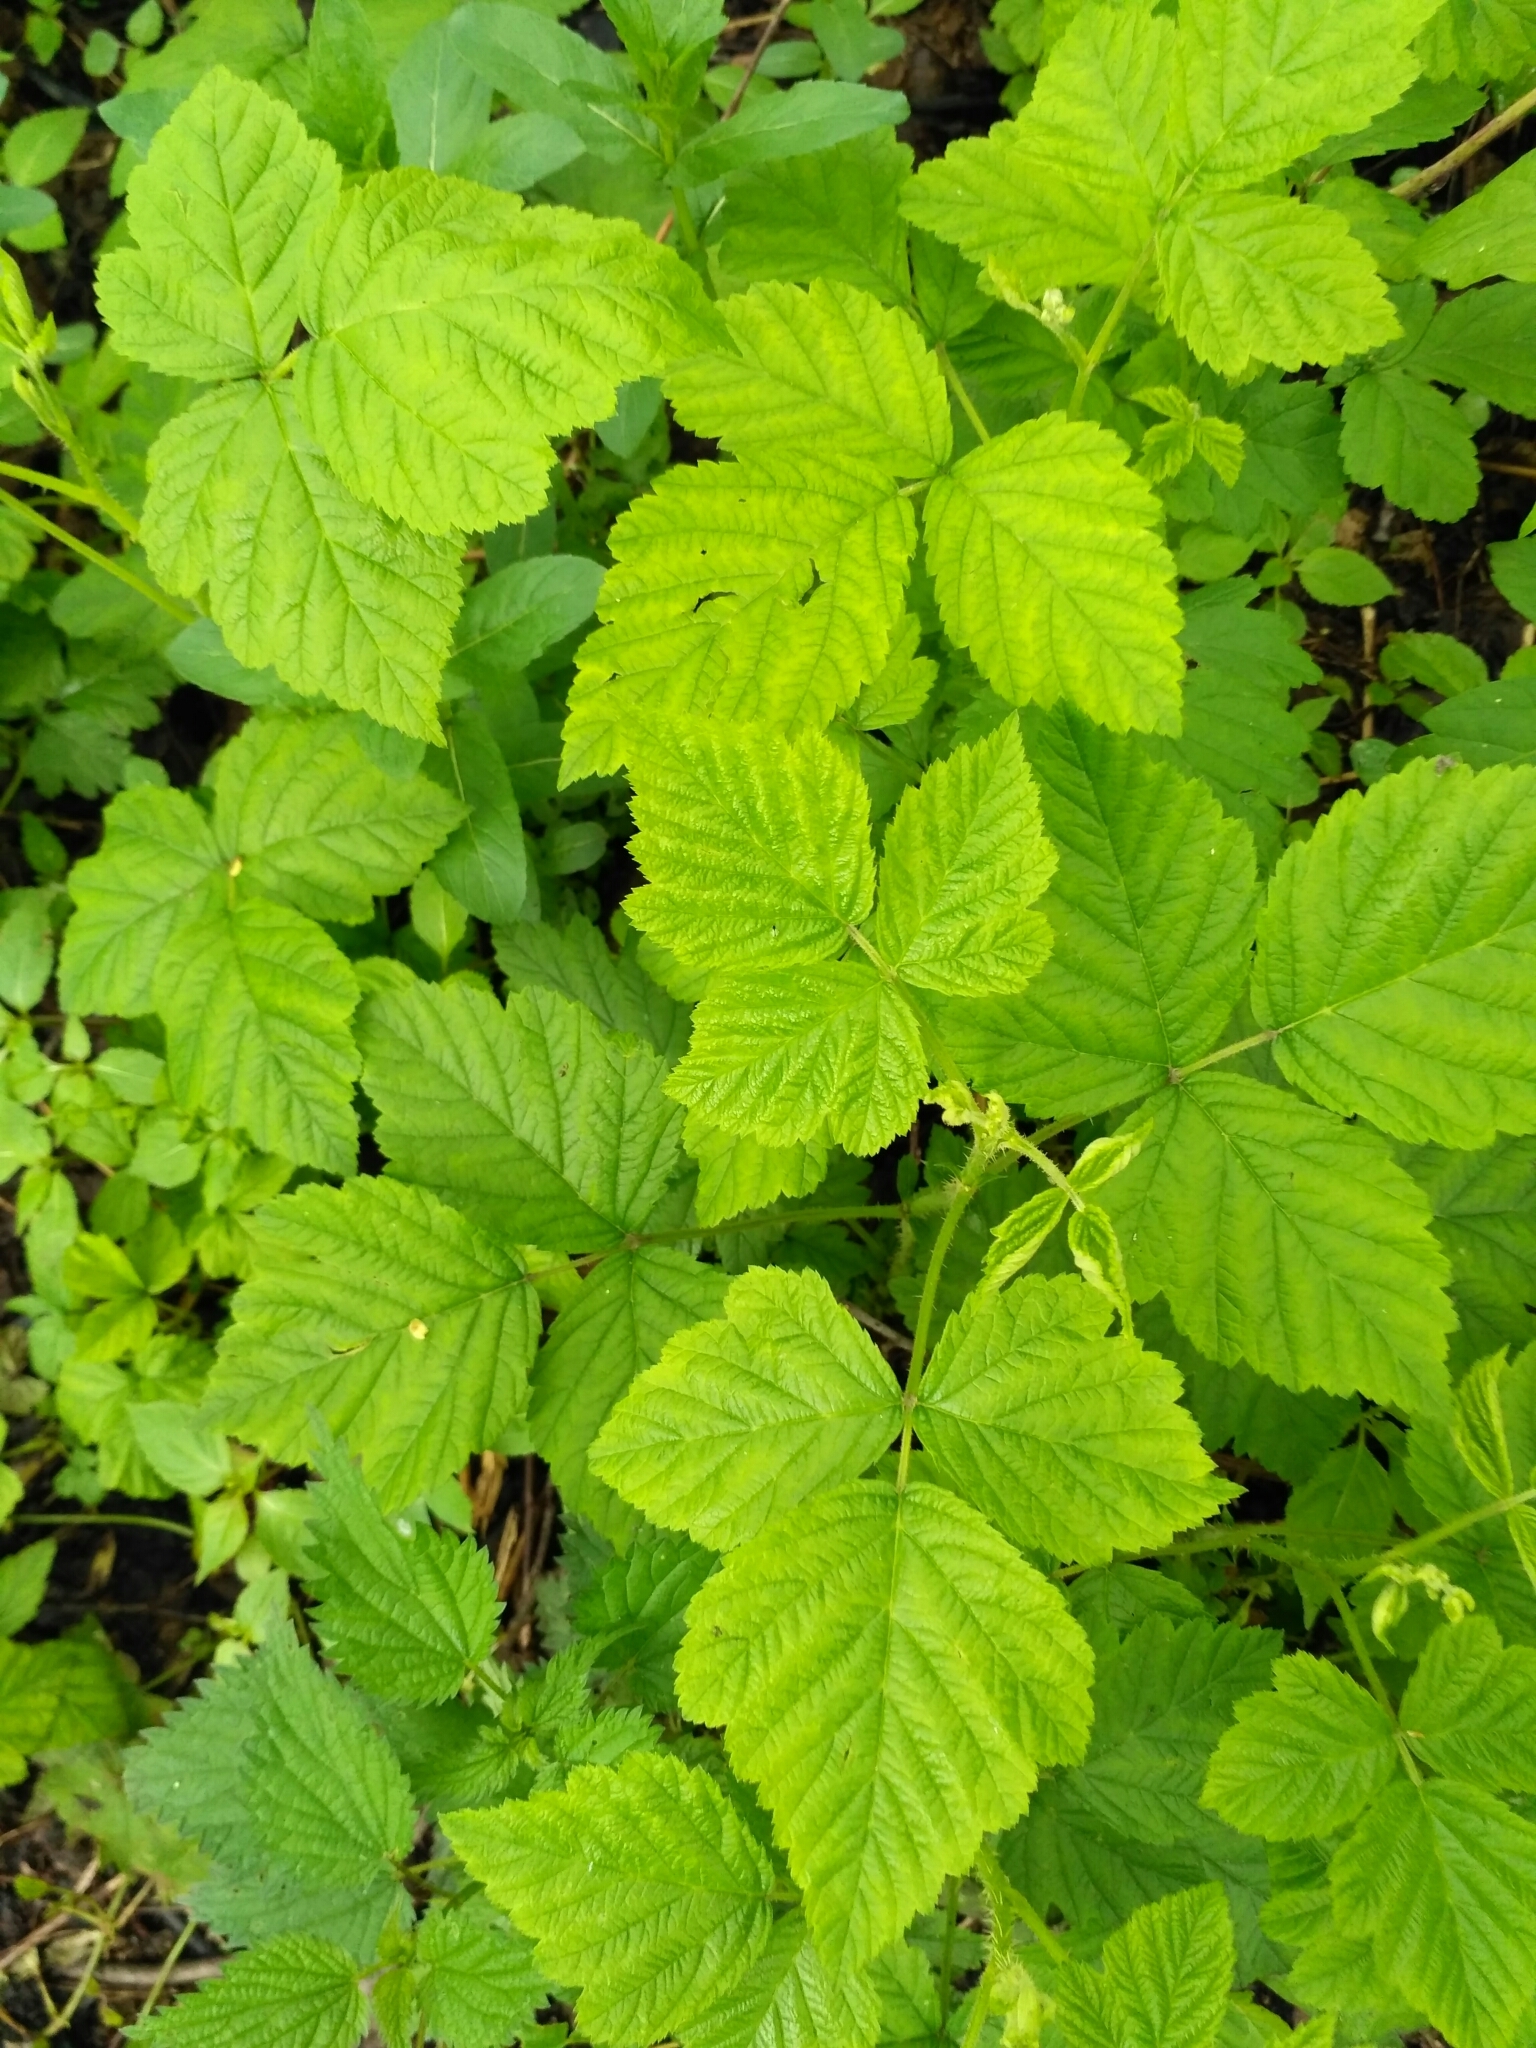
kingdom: Plantae
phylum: Tracheophyta
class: Magnoliopsida
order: Rosales
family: Rosaceae
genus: Rubus
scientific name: Rubus caesius
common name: Dewberry
